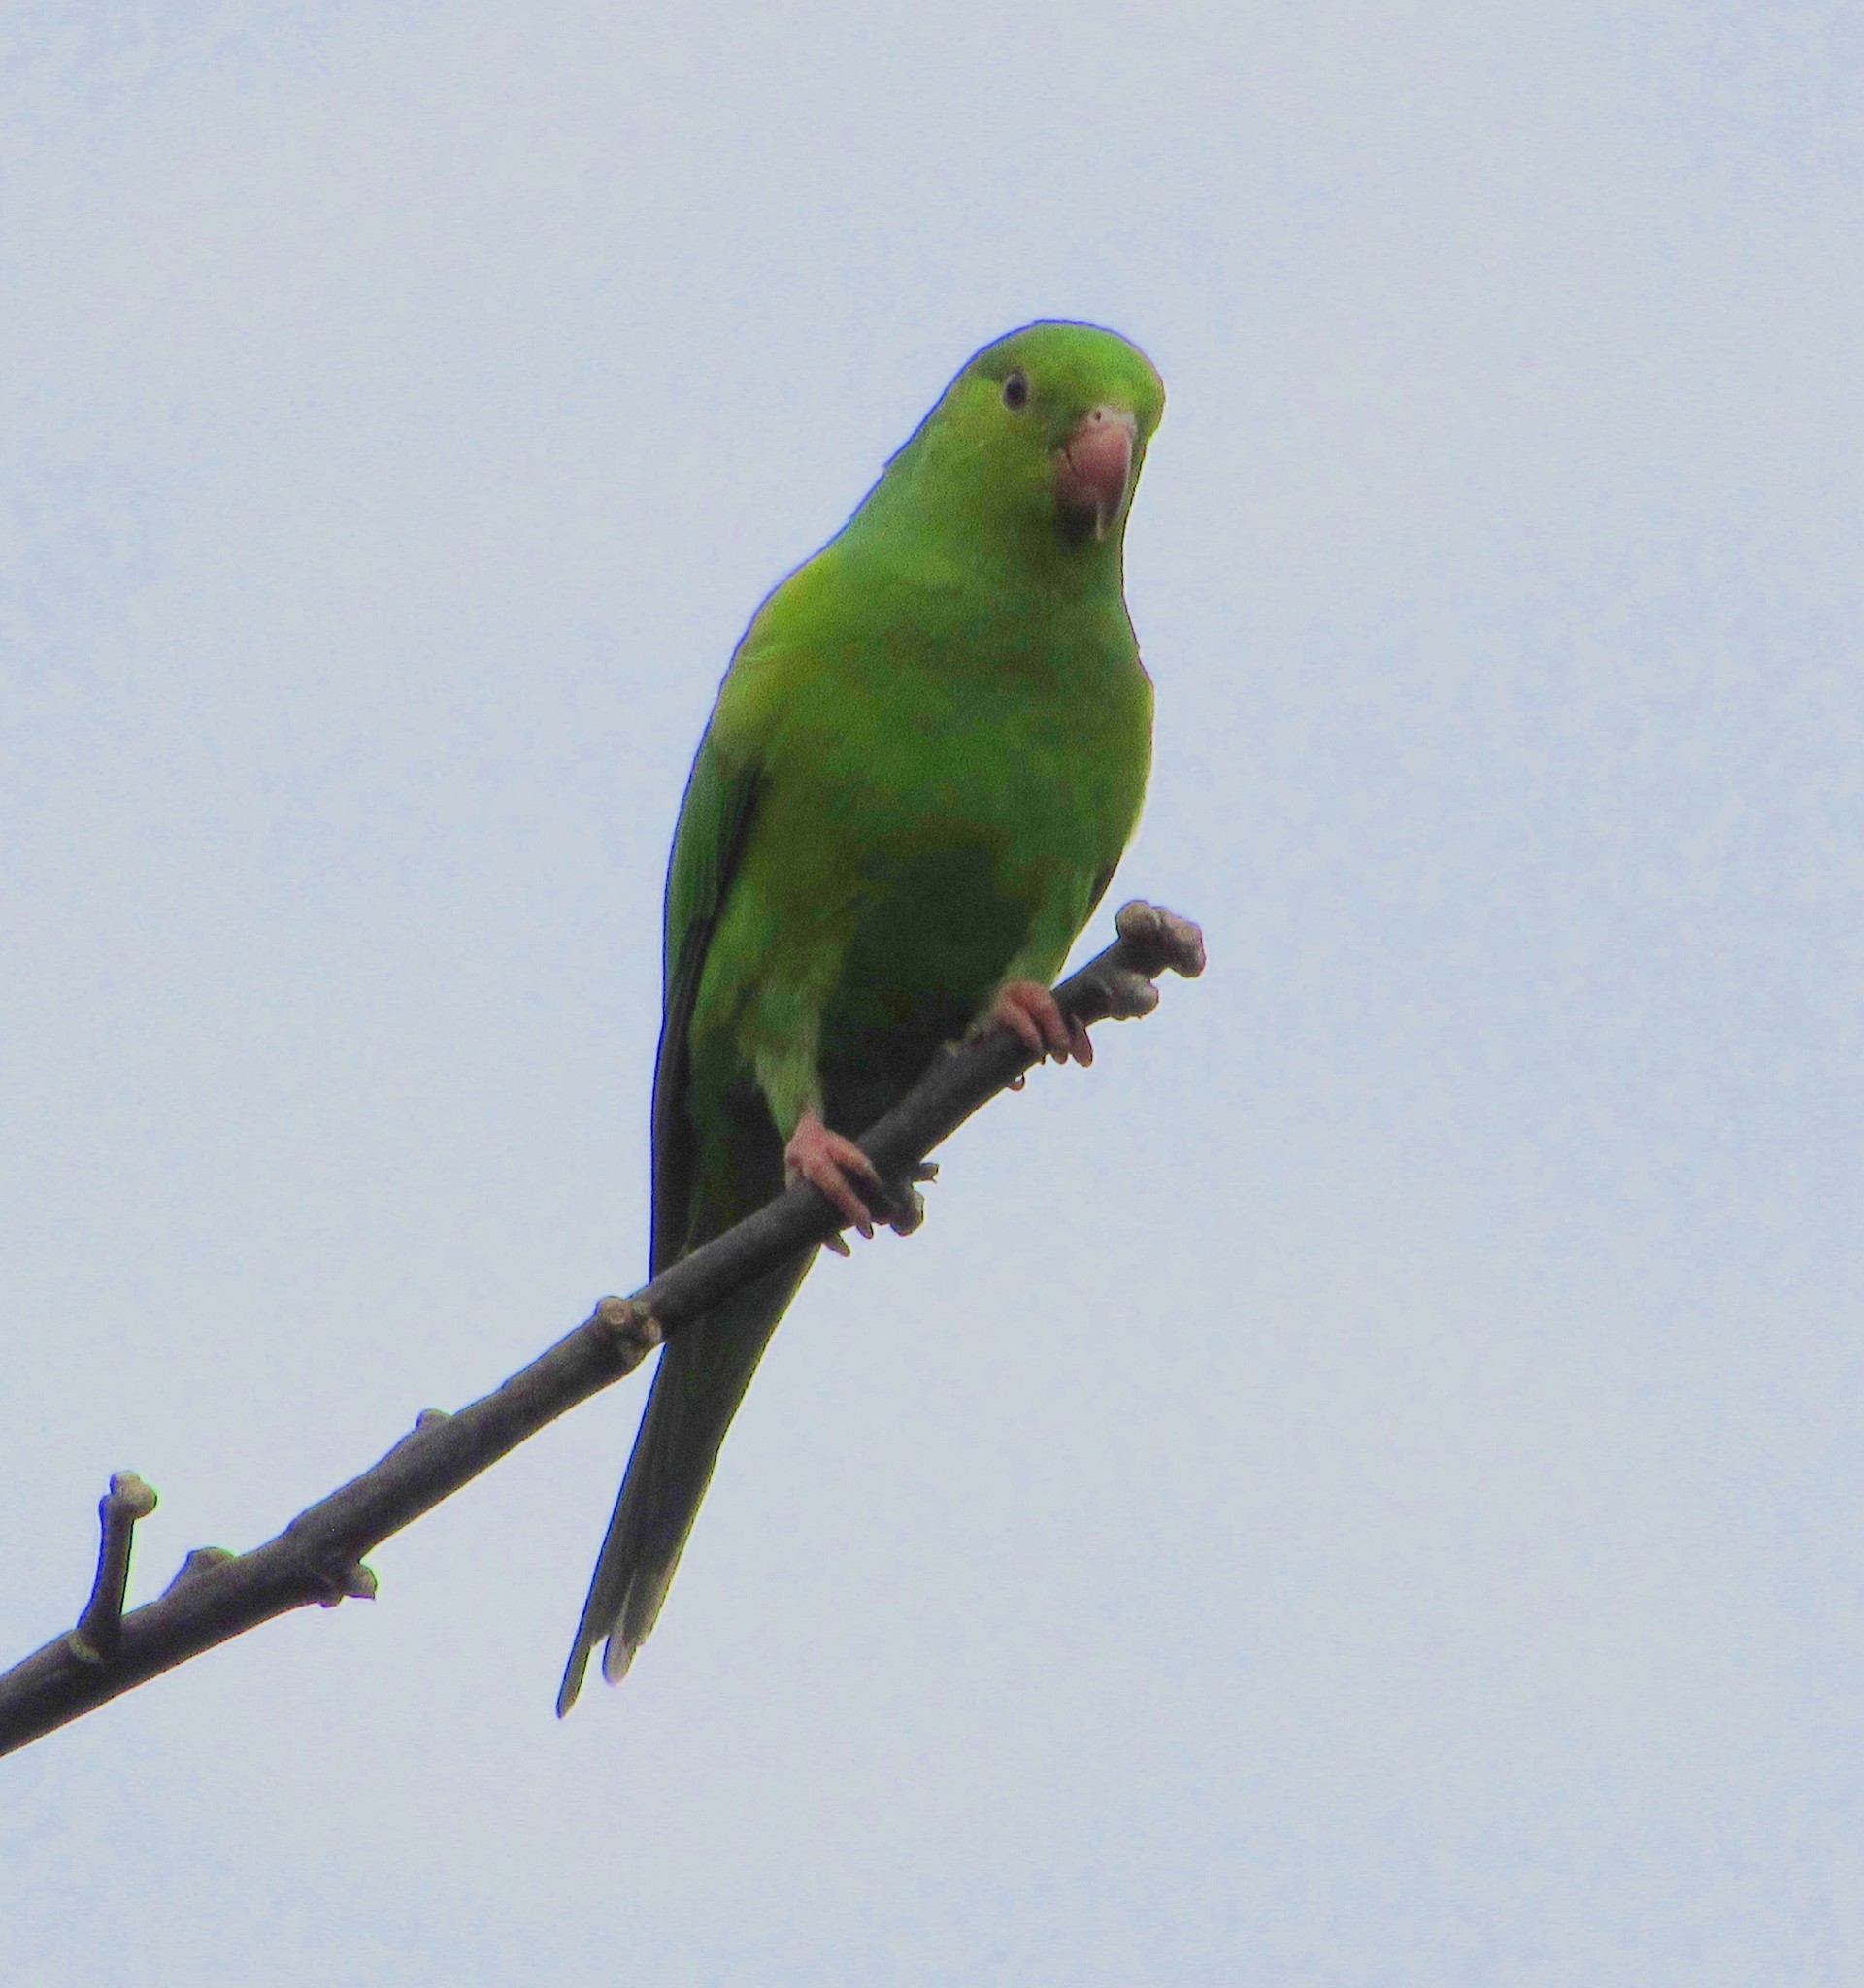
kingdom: Animalia
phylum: Chordata
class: Aves
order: Psittaciformes
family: Psittacidae
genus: Brotogeris
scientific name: Brotogeris tirica
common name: Plain parakeet
